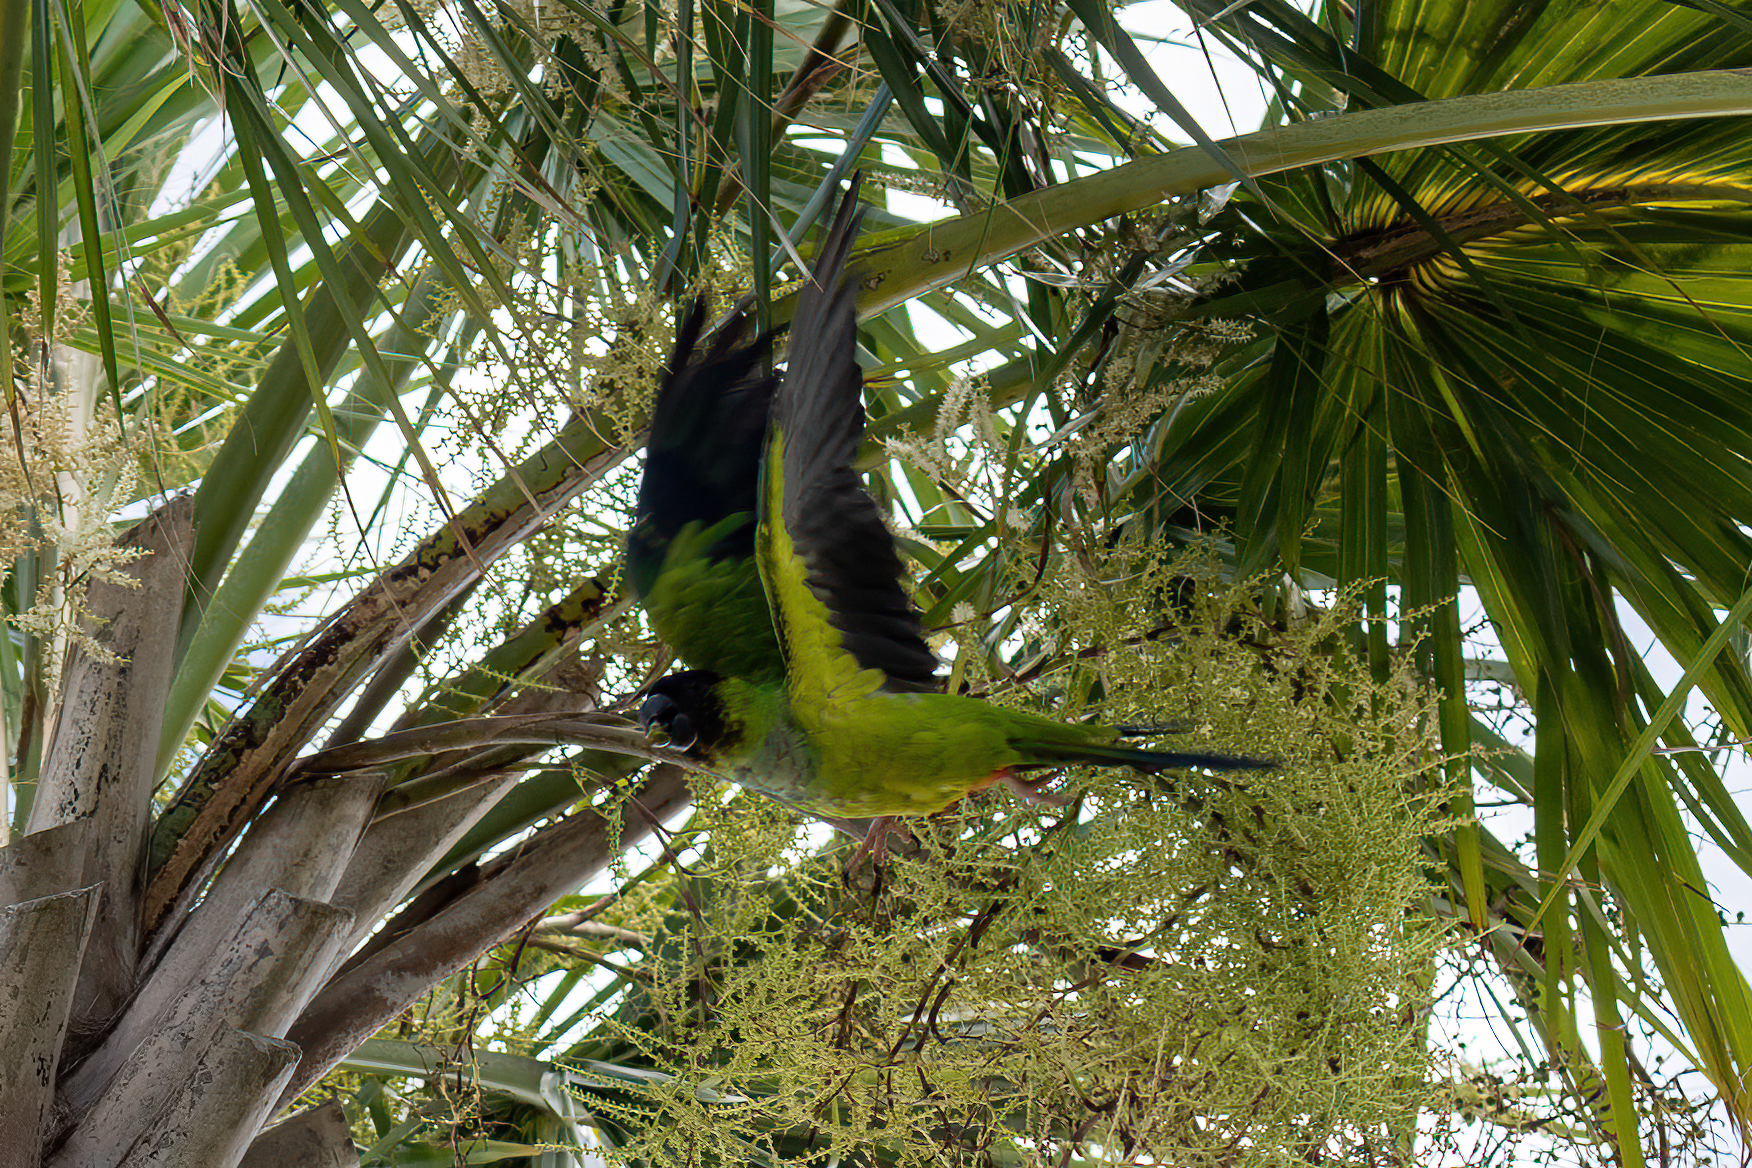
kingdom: Animalia
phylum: Chordata
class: Aves
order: Psittaciformes
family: Psittacidae
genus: Nandayus
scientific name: Nandayus nenday
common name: Nanday parakeet
